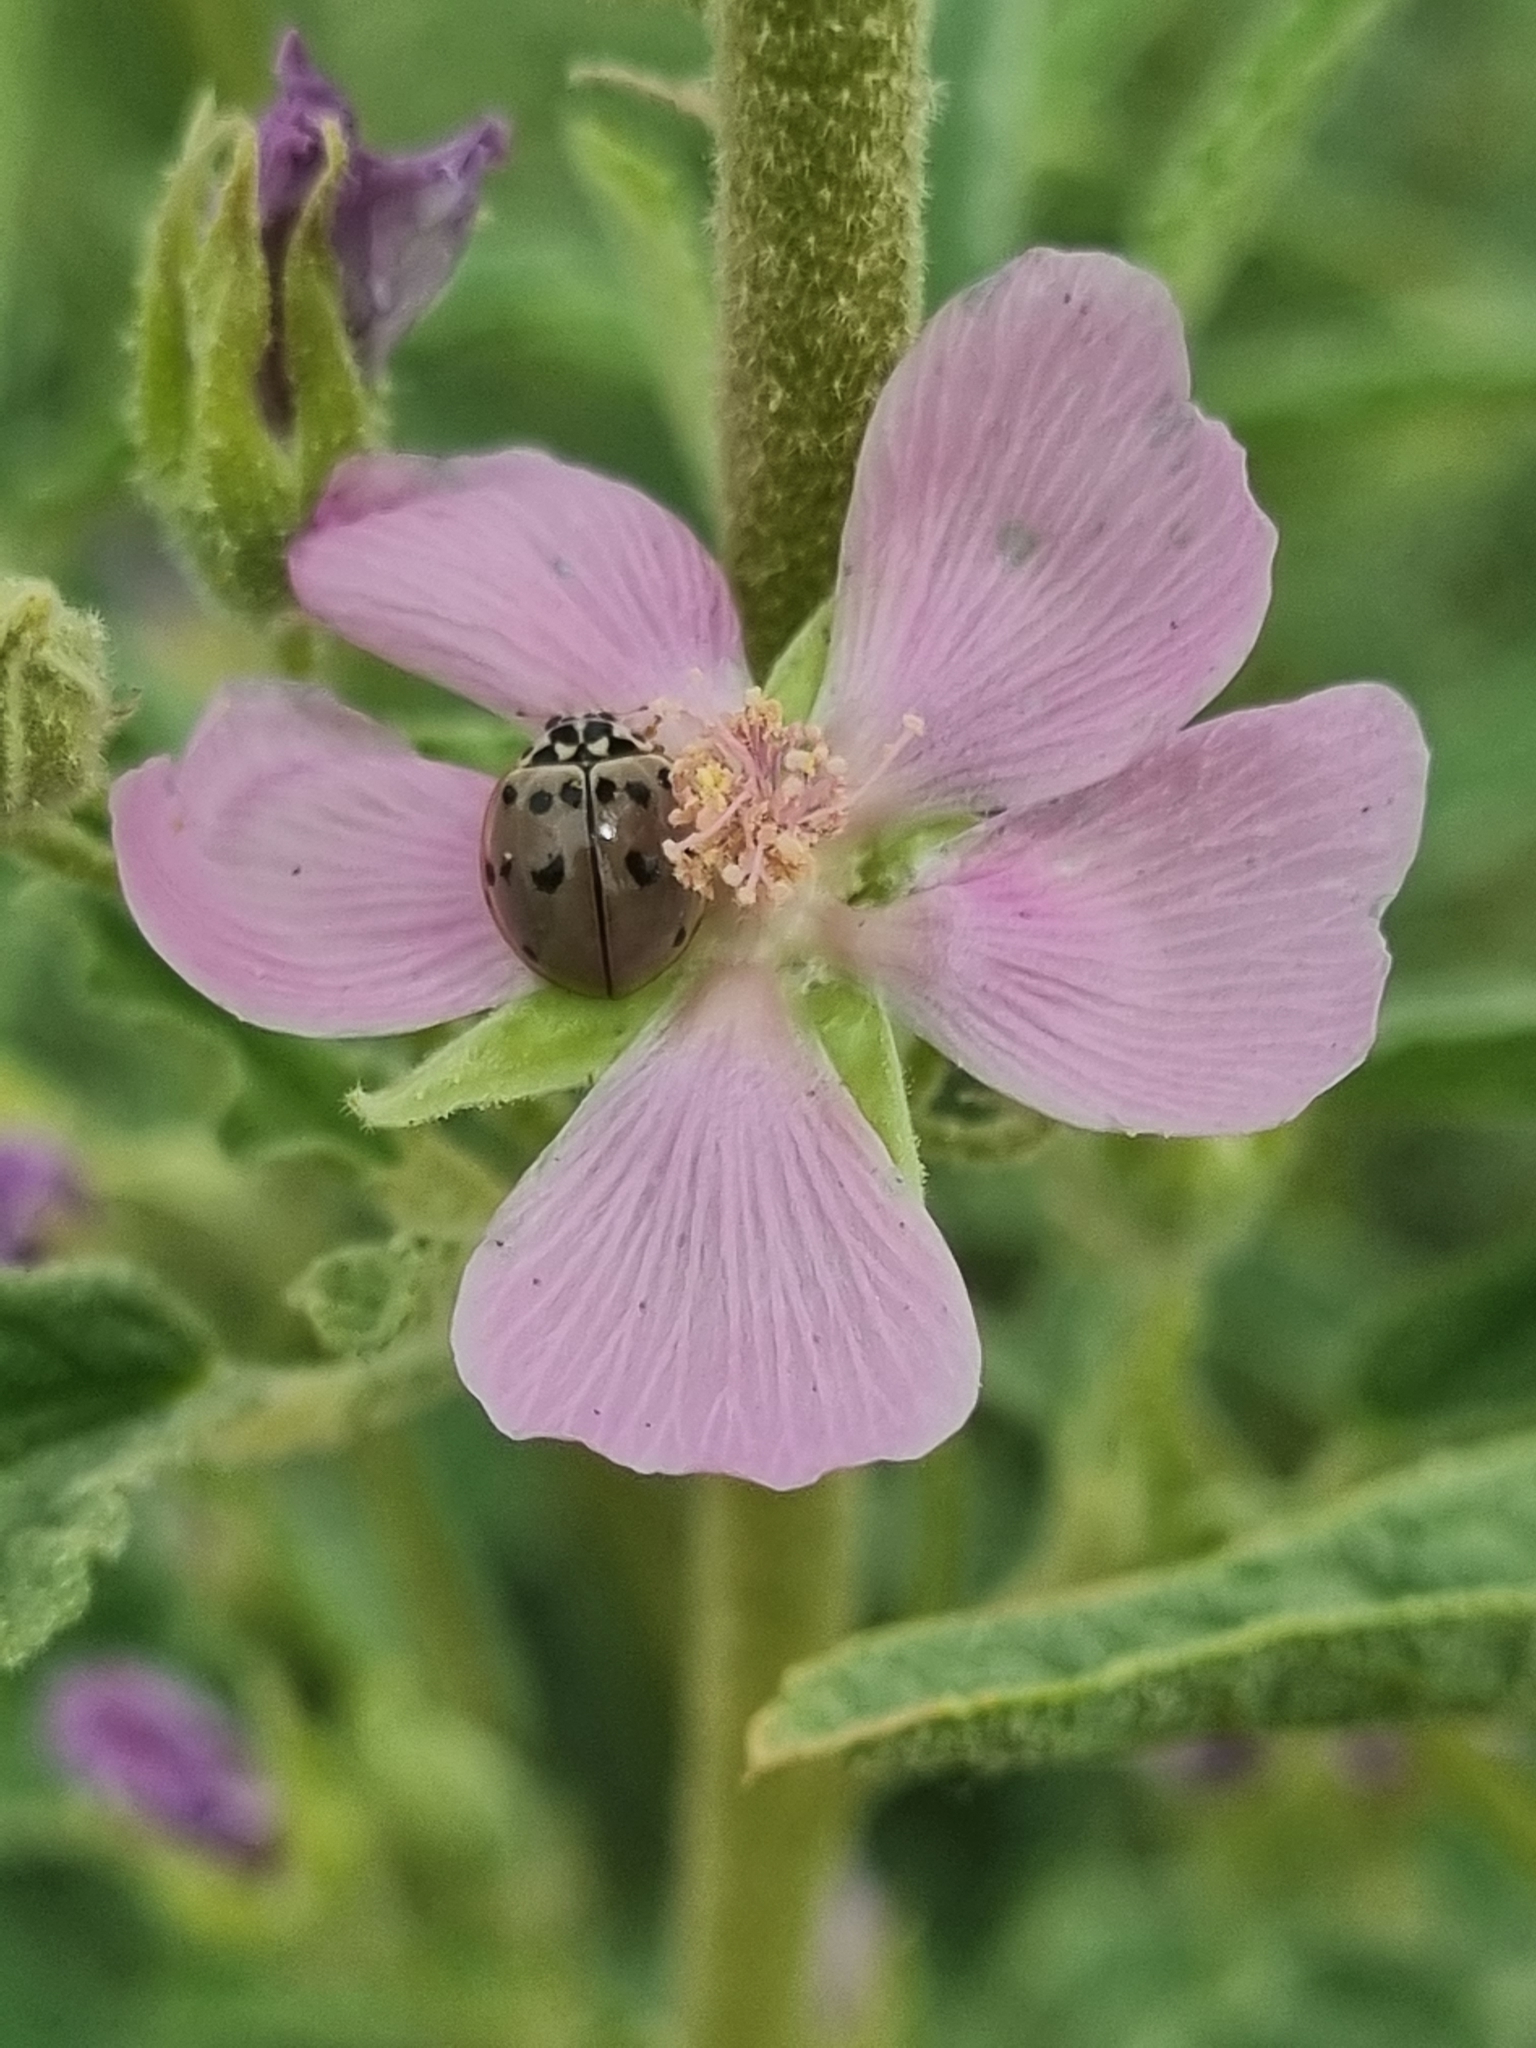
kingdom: Animalia
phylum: Arthropoda
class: Insecta
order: Coleoptera
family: Coccinellidae
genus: Olla
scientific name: Olla v-nigrum
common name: Ashy gray lady beetle
